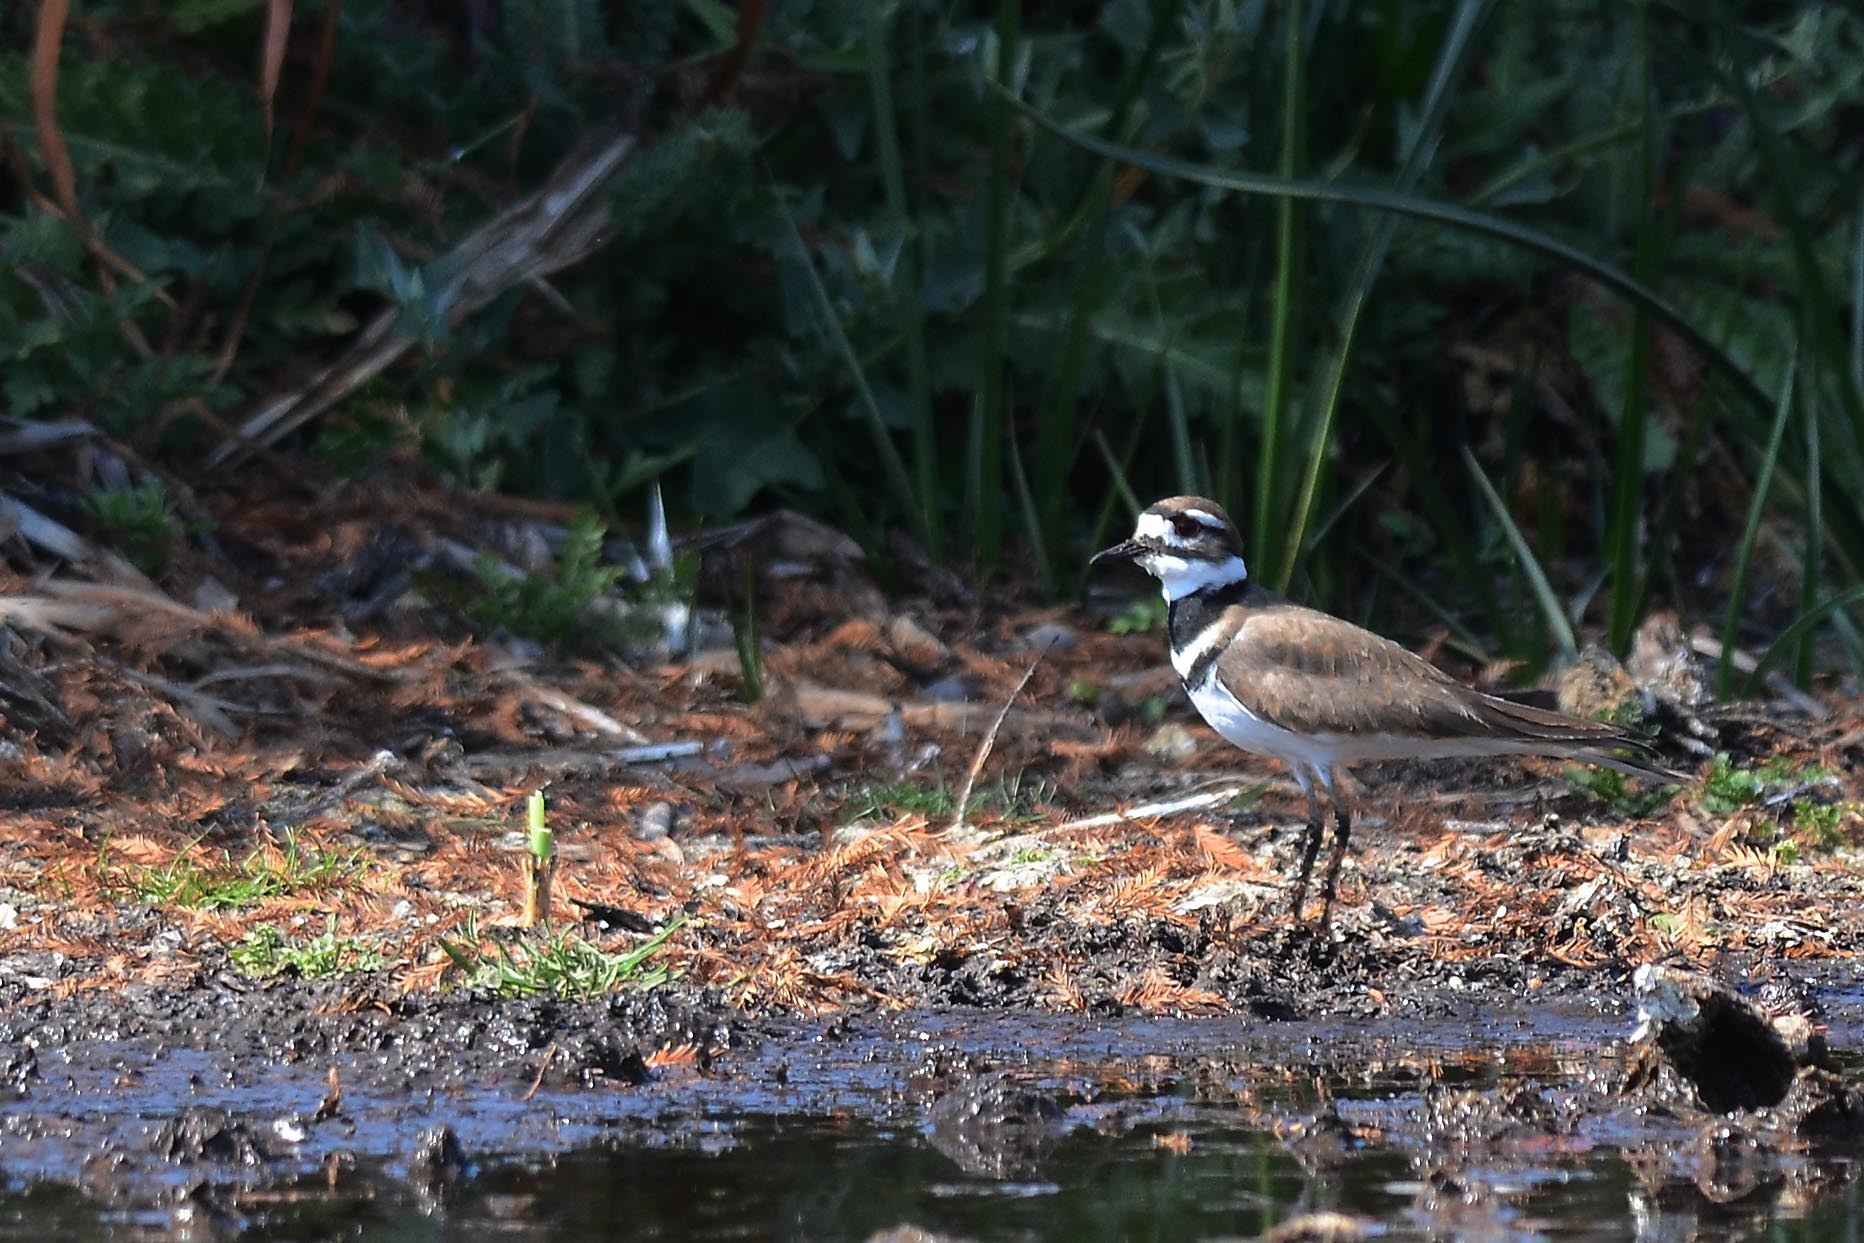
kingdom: Animalia
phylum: Chordata
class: Aves
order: Charadriiformes
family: Charadriidae
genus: Charadrius
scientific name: Charadrius vociferus
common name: Killdeer
